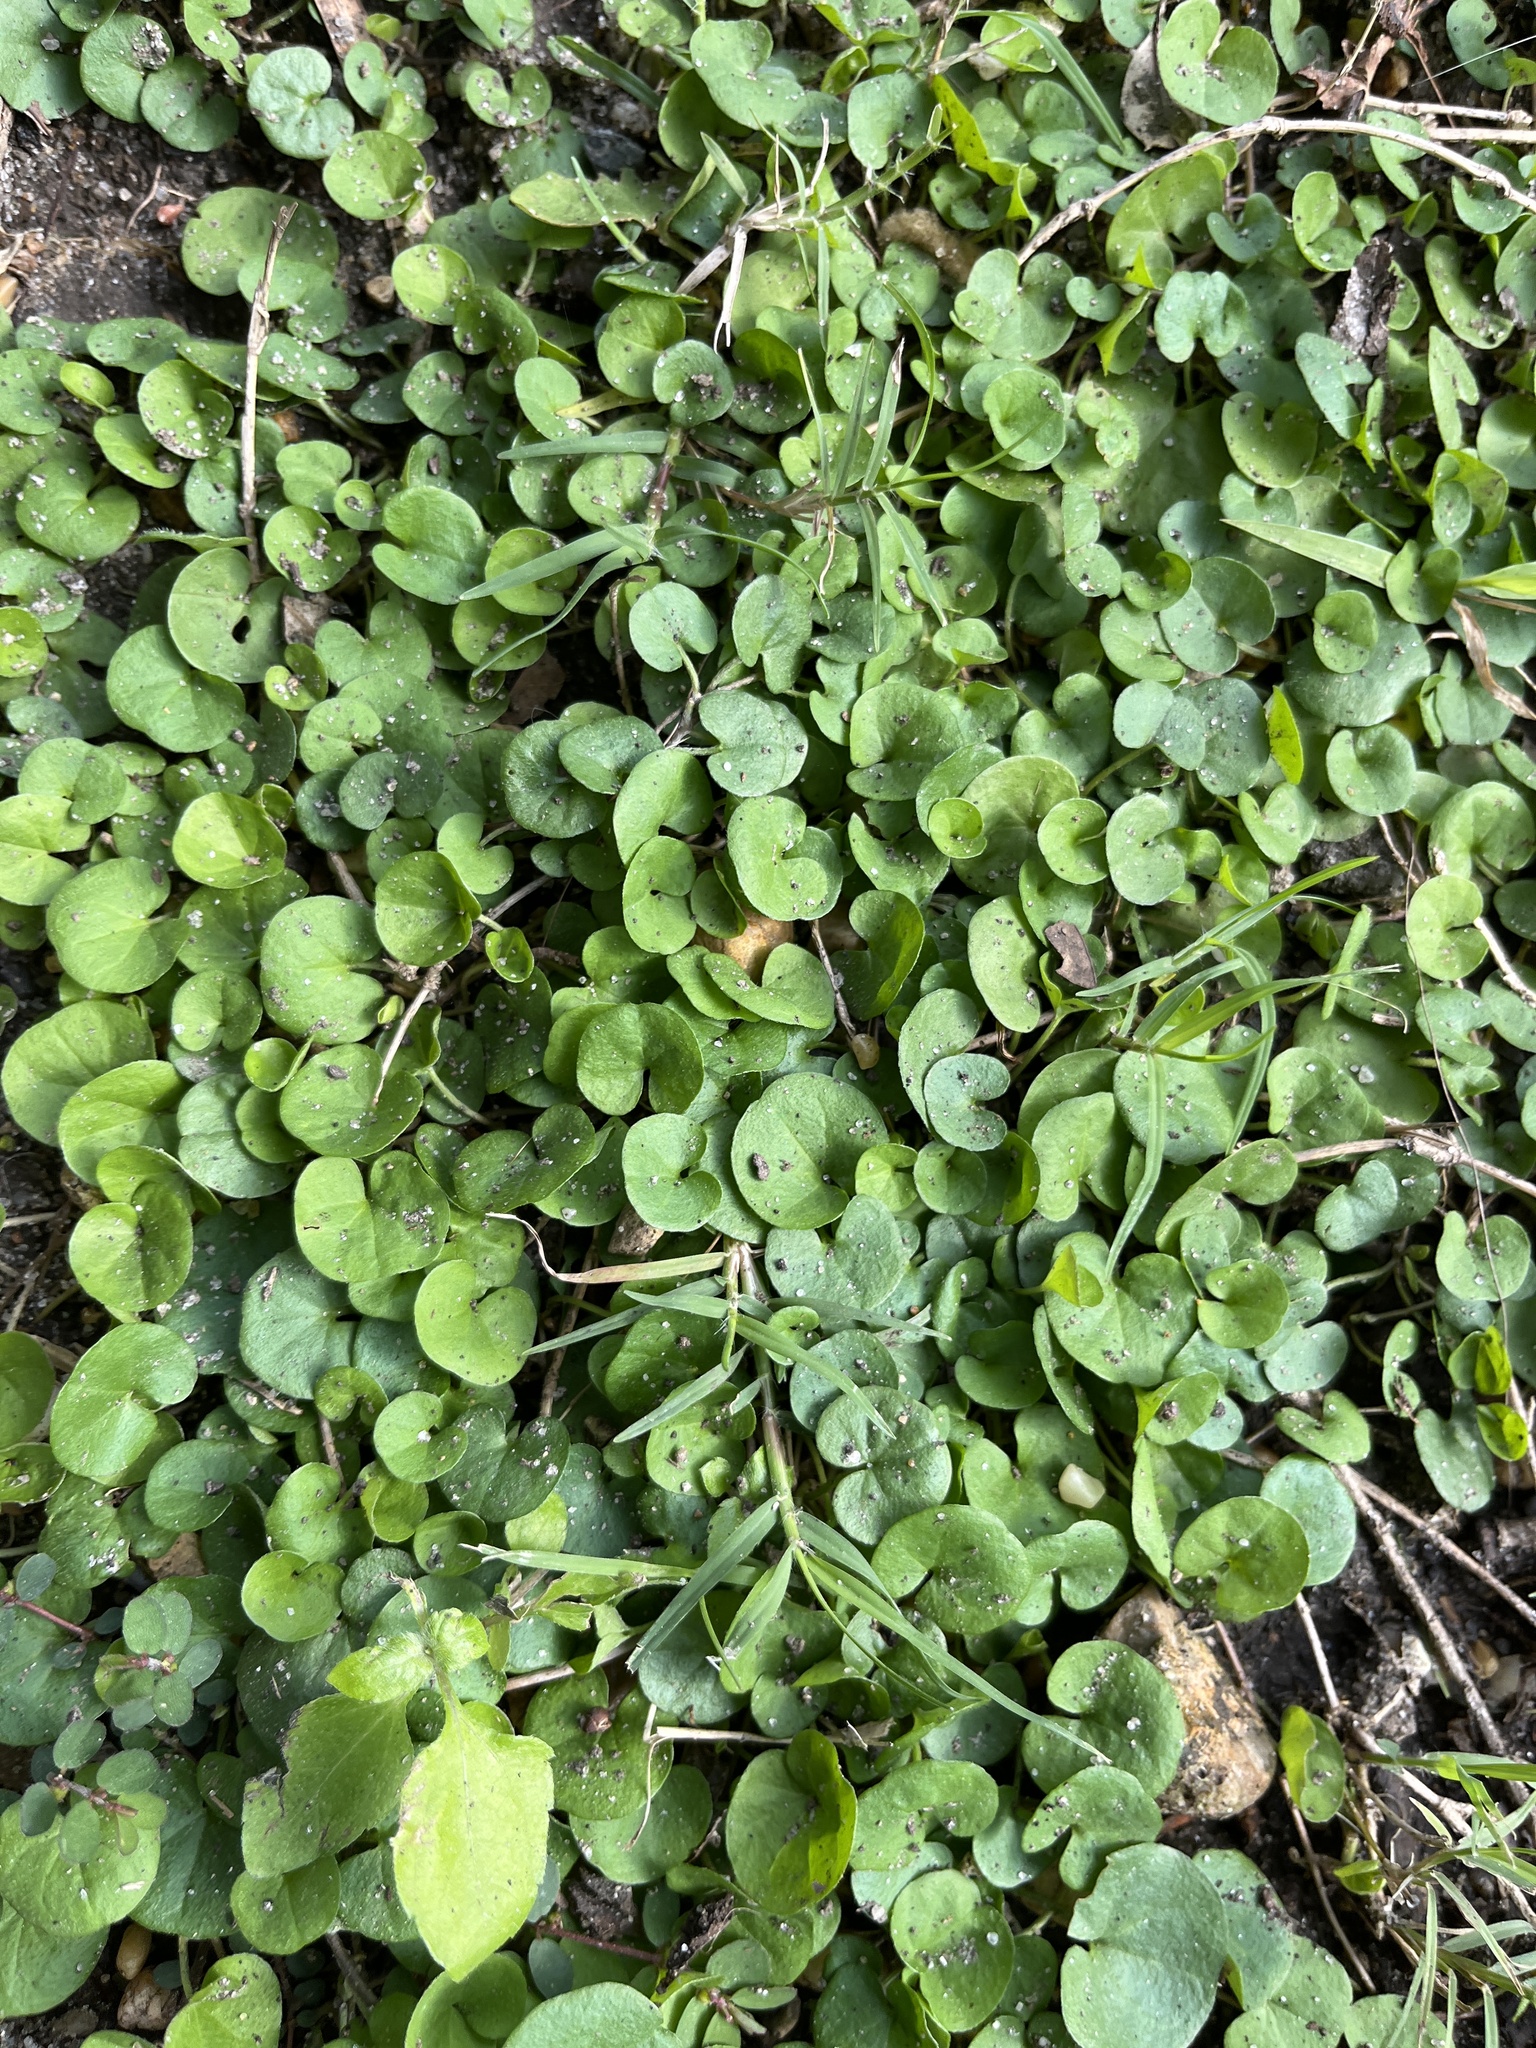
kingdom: Plantae
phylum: Tracheophyta
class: Magnoliopsida
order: Solanales
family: Convolvulaceae
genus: Dichondra
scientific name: Dichondra carolinensis
